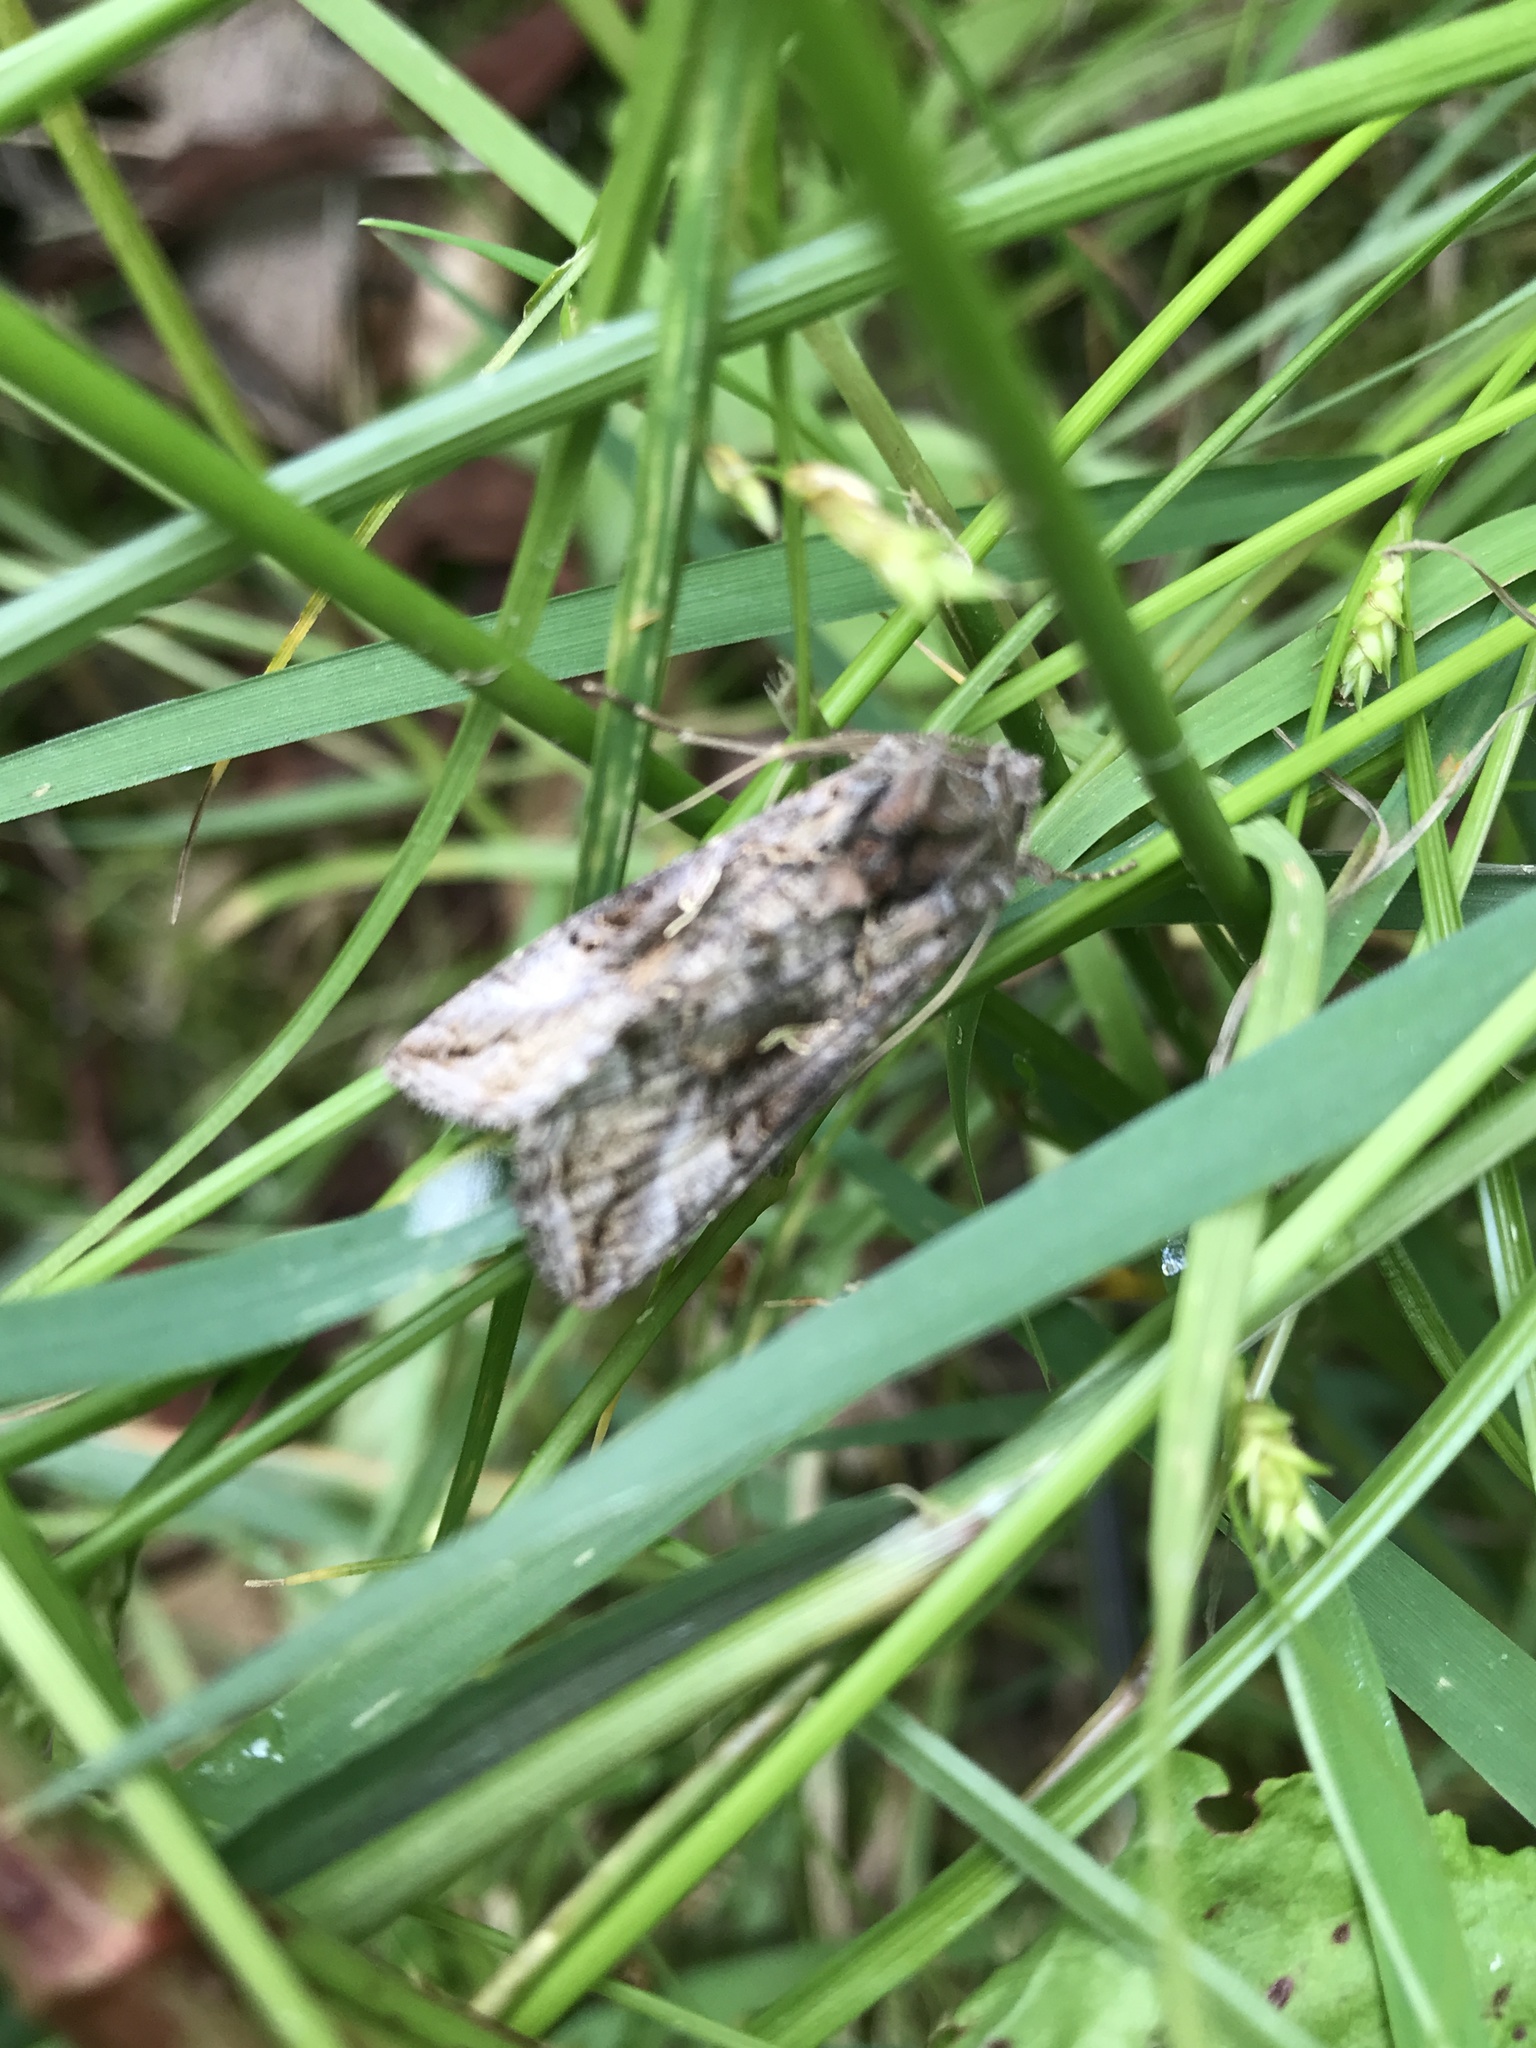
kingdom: Animalia
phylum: Arthropoda
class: Insecta
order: Lepidoptera
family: Noctuidae
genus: Autographa
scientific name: Autographa gamma
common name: Silver y
